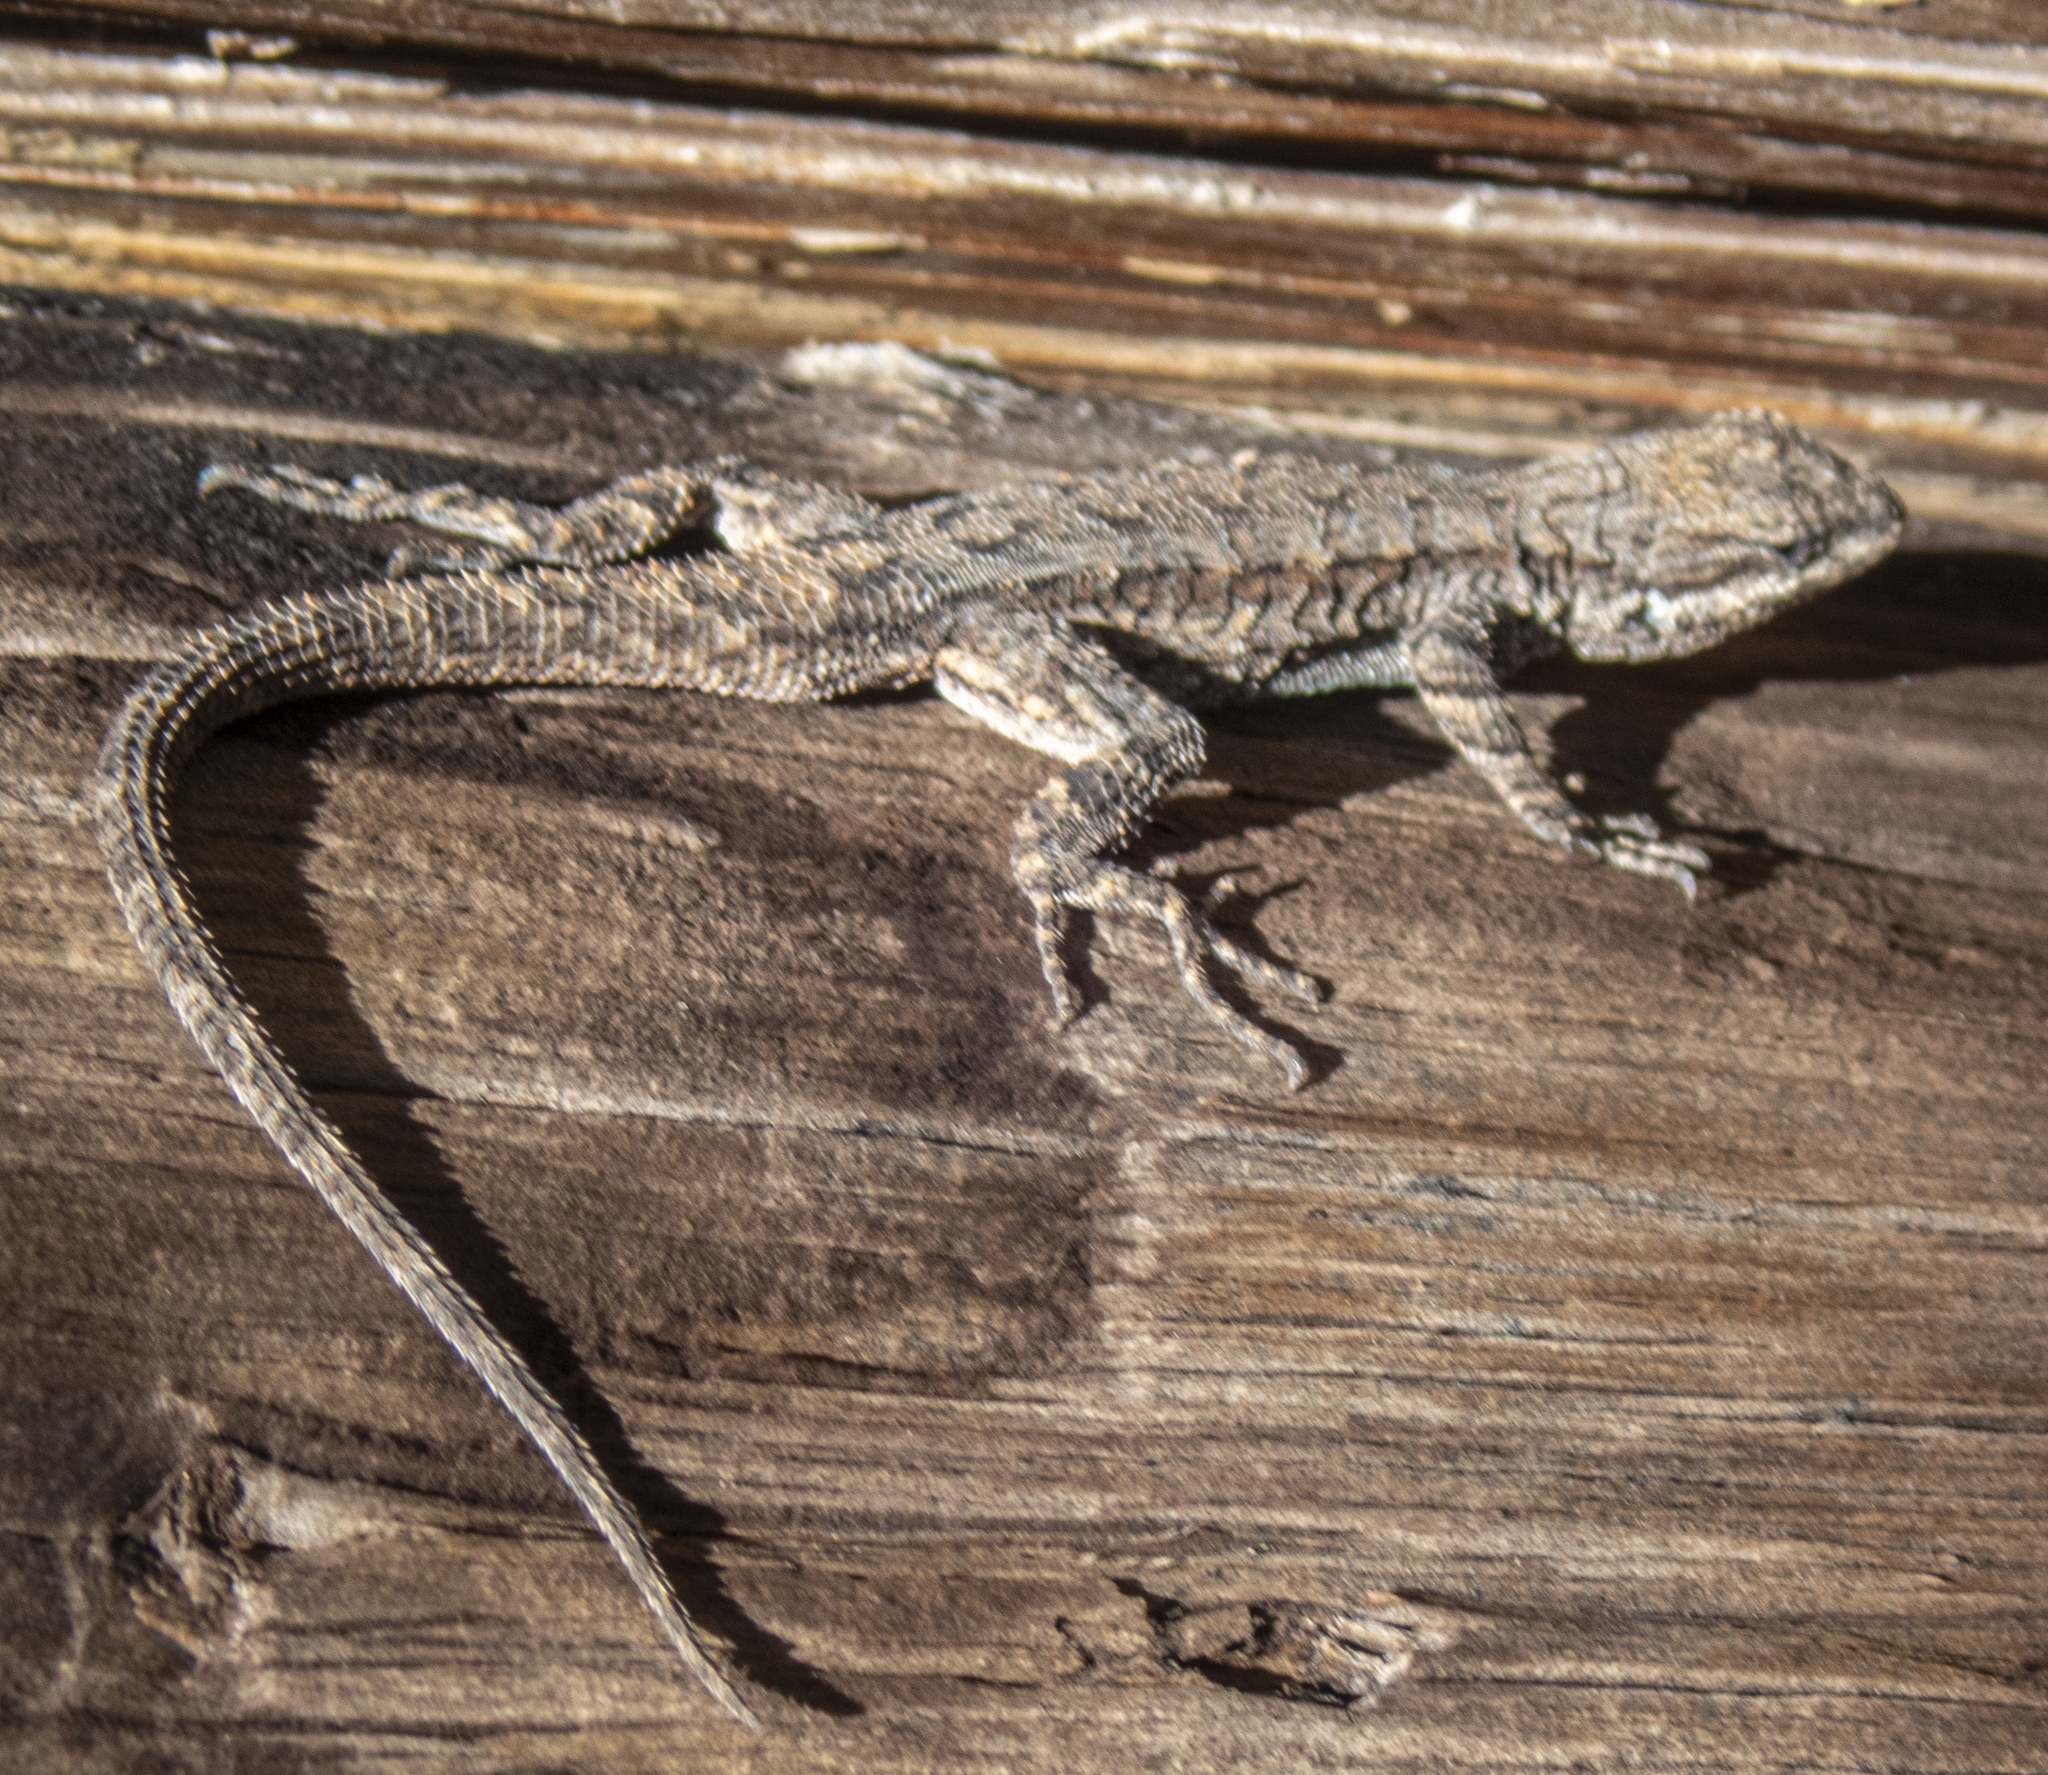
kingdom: Animalia
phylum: Chordata
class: Squamata
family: Phrynosomatidae
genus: Urosaurus
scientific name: Urosaurus ornatus
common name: Ornate tree lizard
